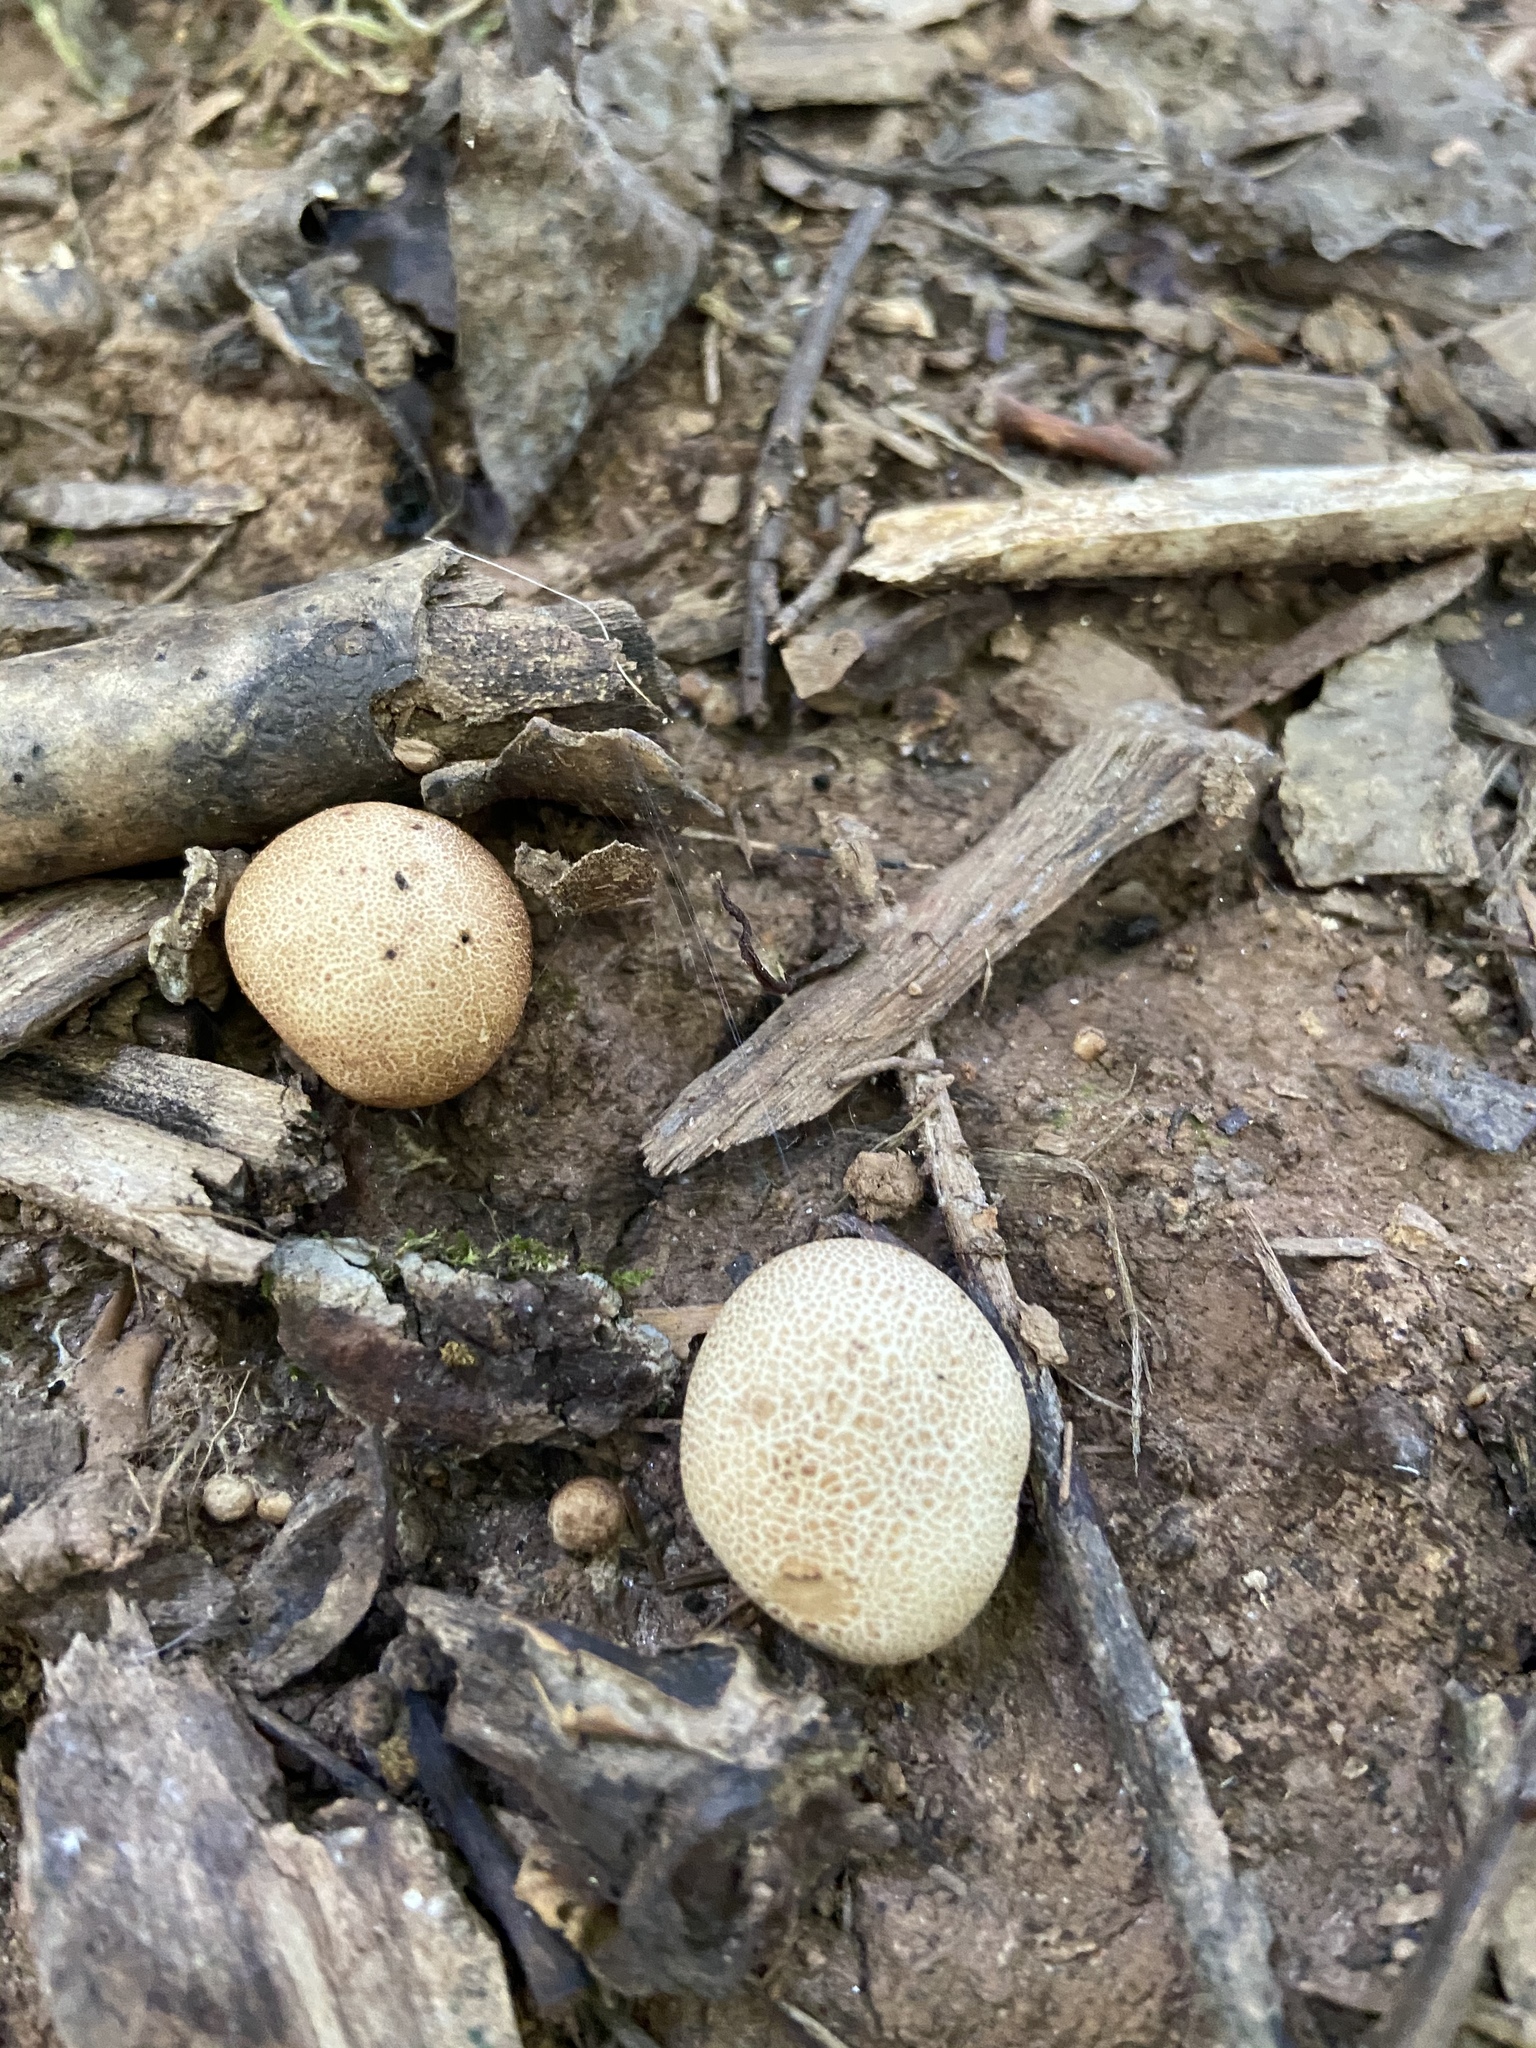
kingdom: Fungi
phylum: Basidiomycota
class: Agaricomycetes
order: Boletales
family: Sclerodermataceae
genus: Scleroderma
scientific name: Scleroderma citrinum
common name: Common earthball
